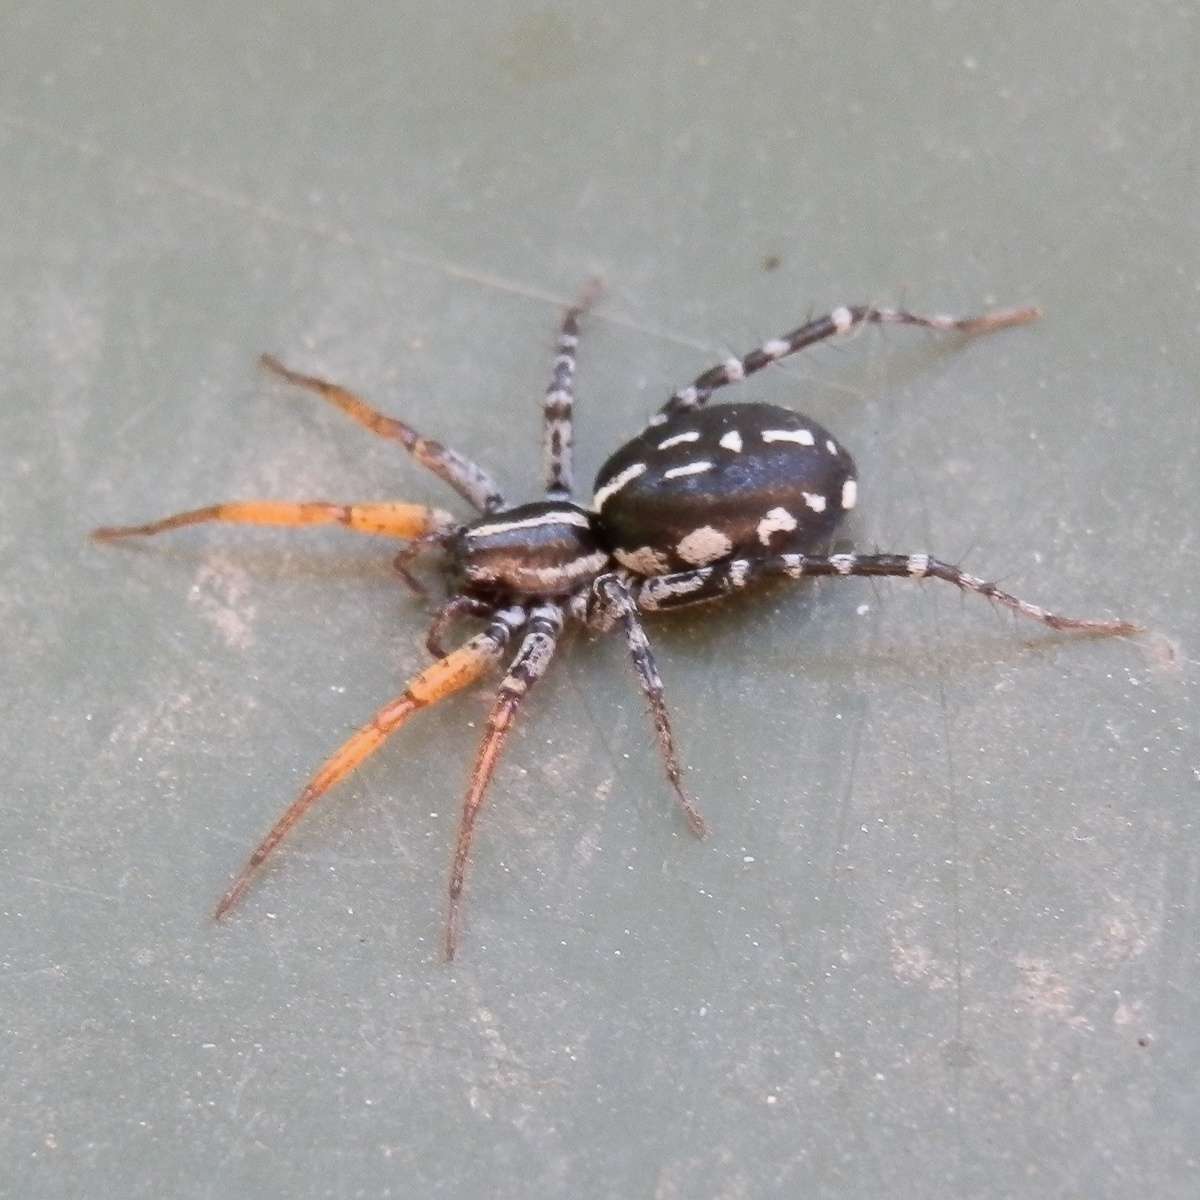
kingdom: Animalia
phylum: Arthropoda
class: Arachnida
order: Araneae
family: Corinnidae
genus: Nyssus
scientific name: Nyssus coloripes
